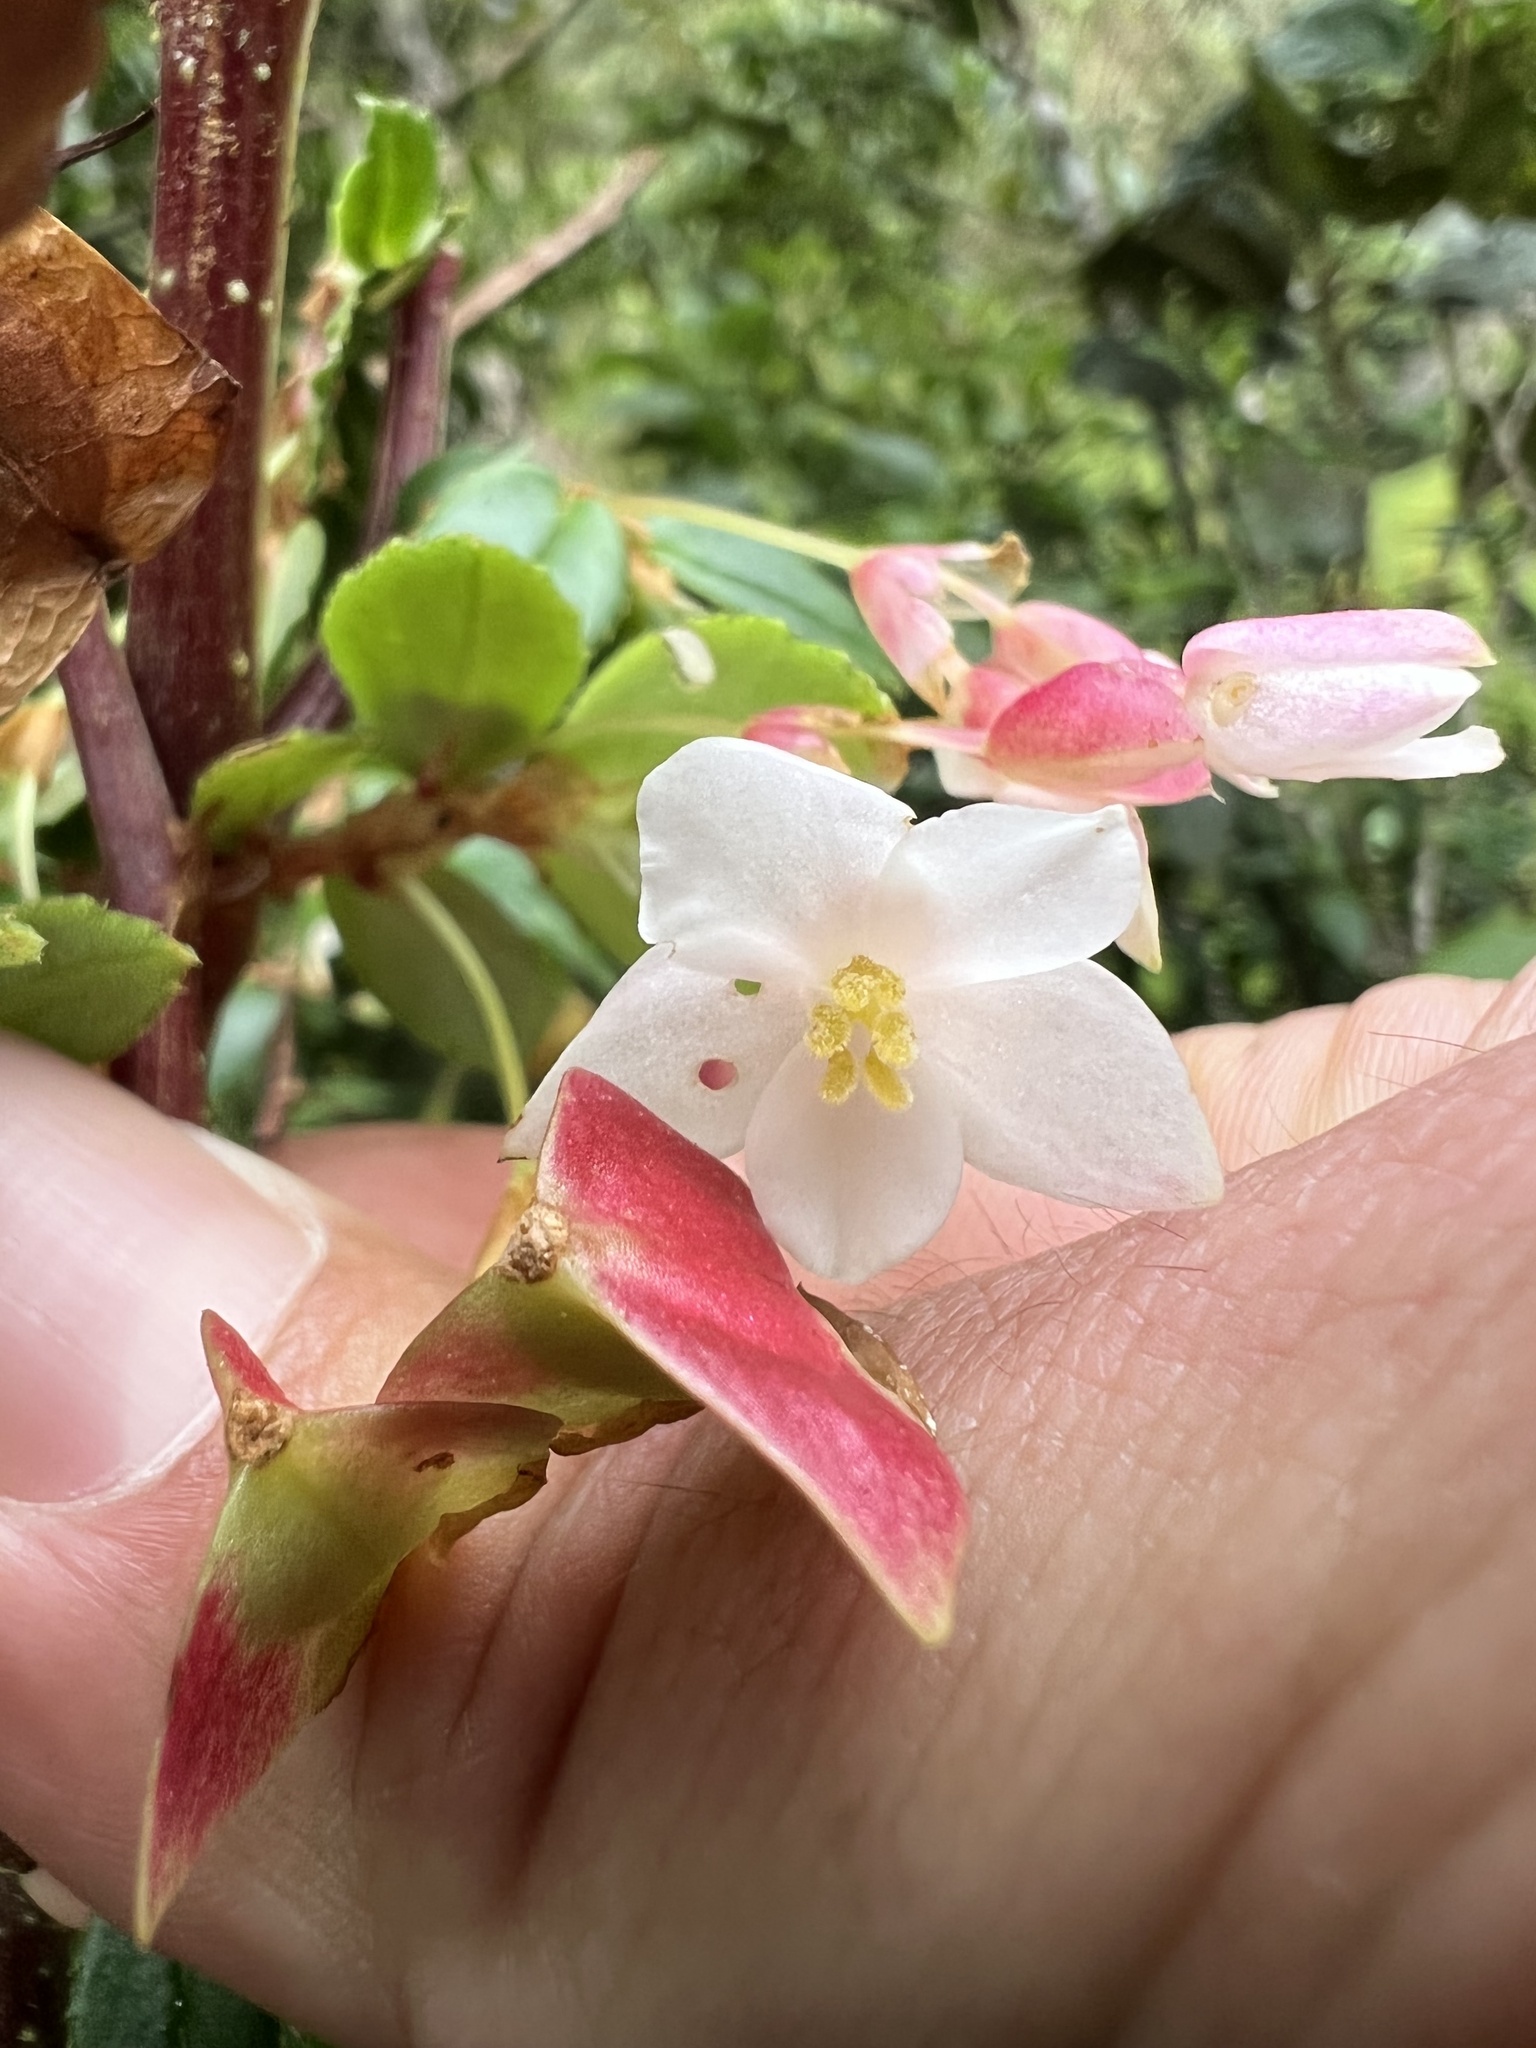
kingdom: Plantae
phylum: Tracheophyta
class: Magnoliopsida
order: Cucurbitales
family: Begoniaceae
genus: Begonia
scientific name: Begonia foliosa
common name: Fern begonia
